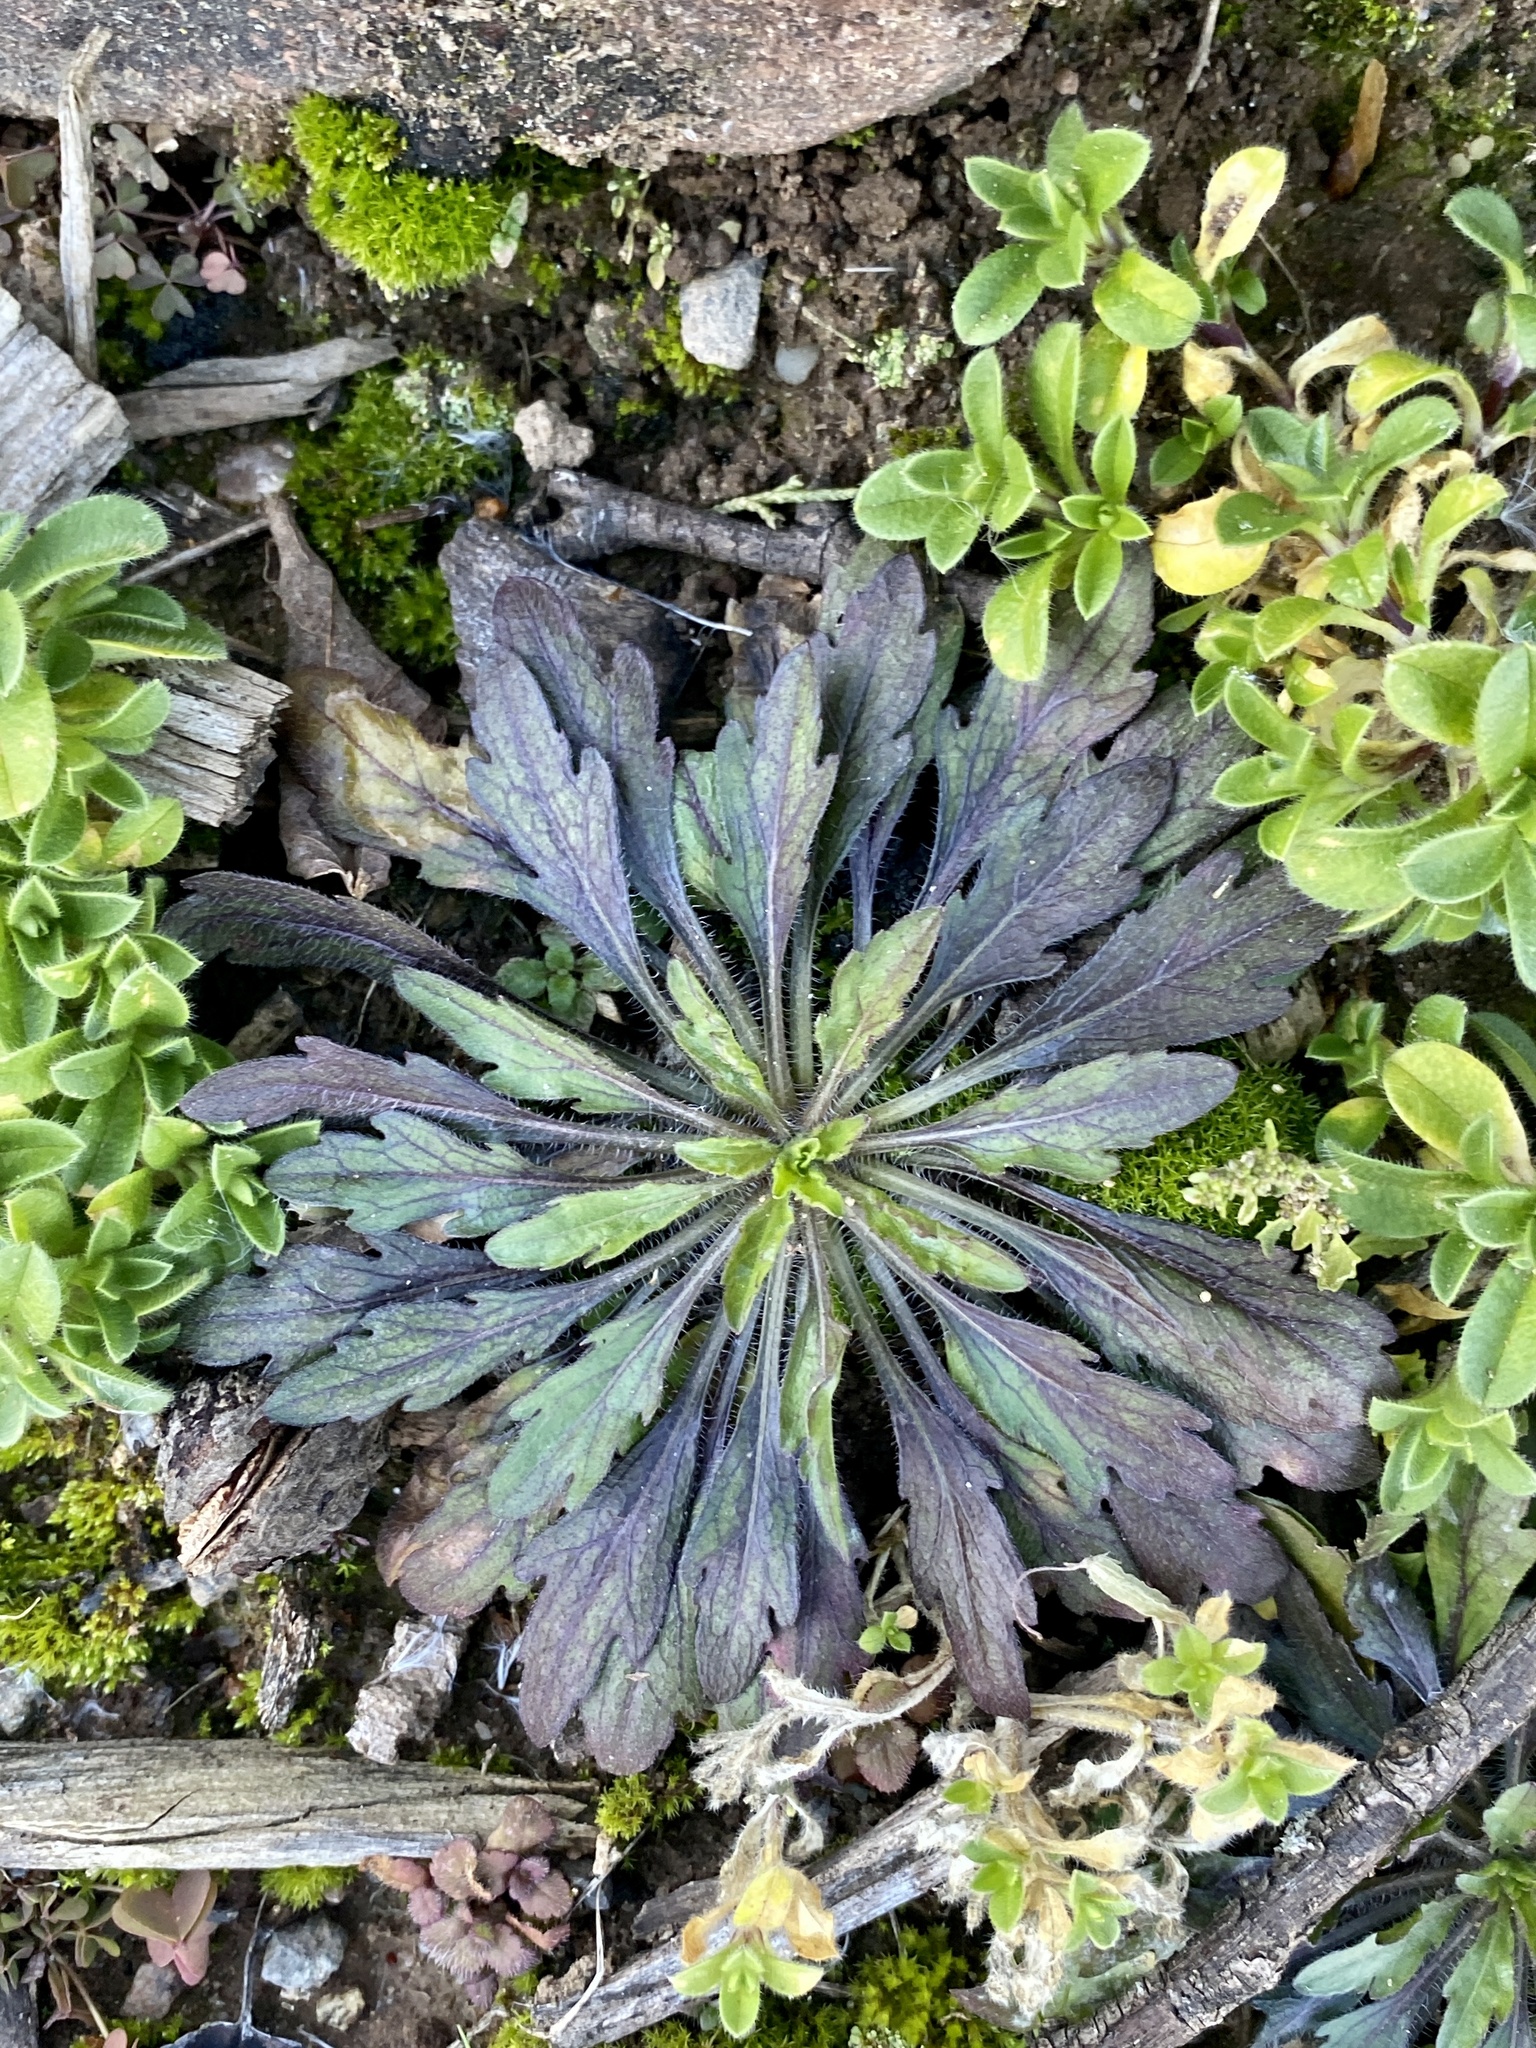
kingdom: Plantae
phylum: Tracheophyta
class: Magnoliopsida
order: Asterales
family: Asteraceae
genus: Erigeron
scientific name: Erigeron canadensis
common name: Canadian fleabane
